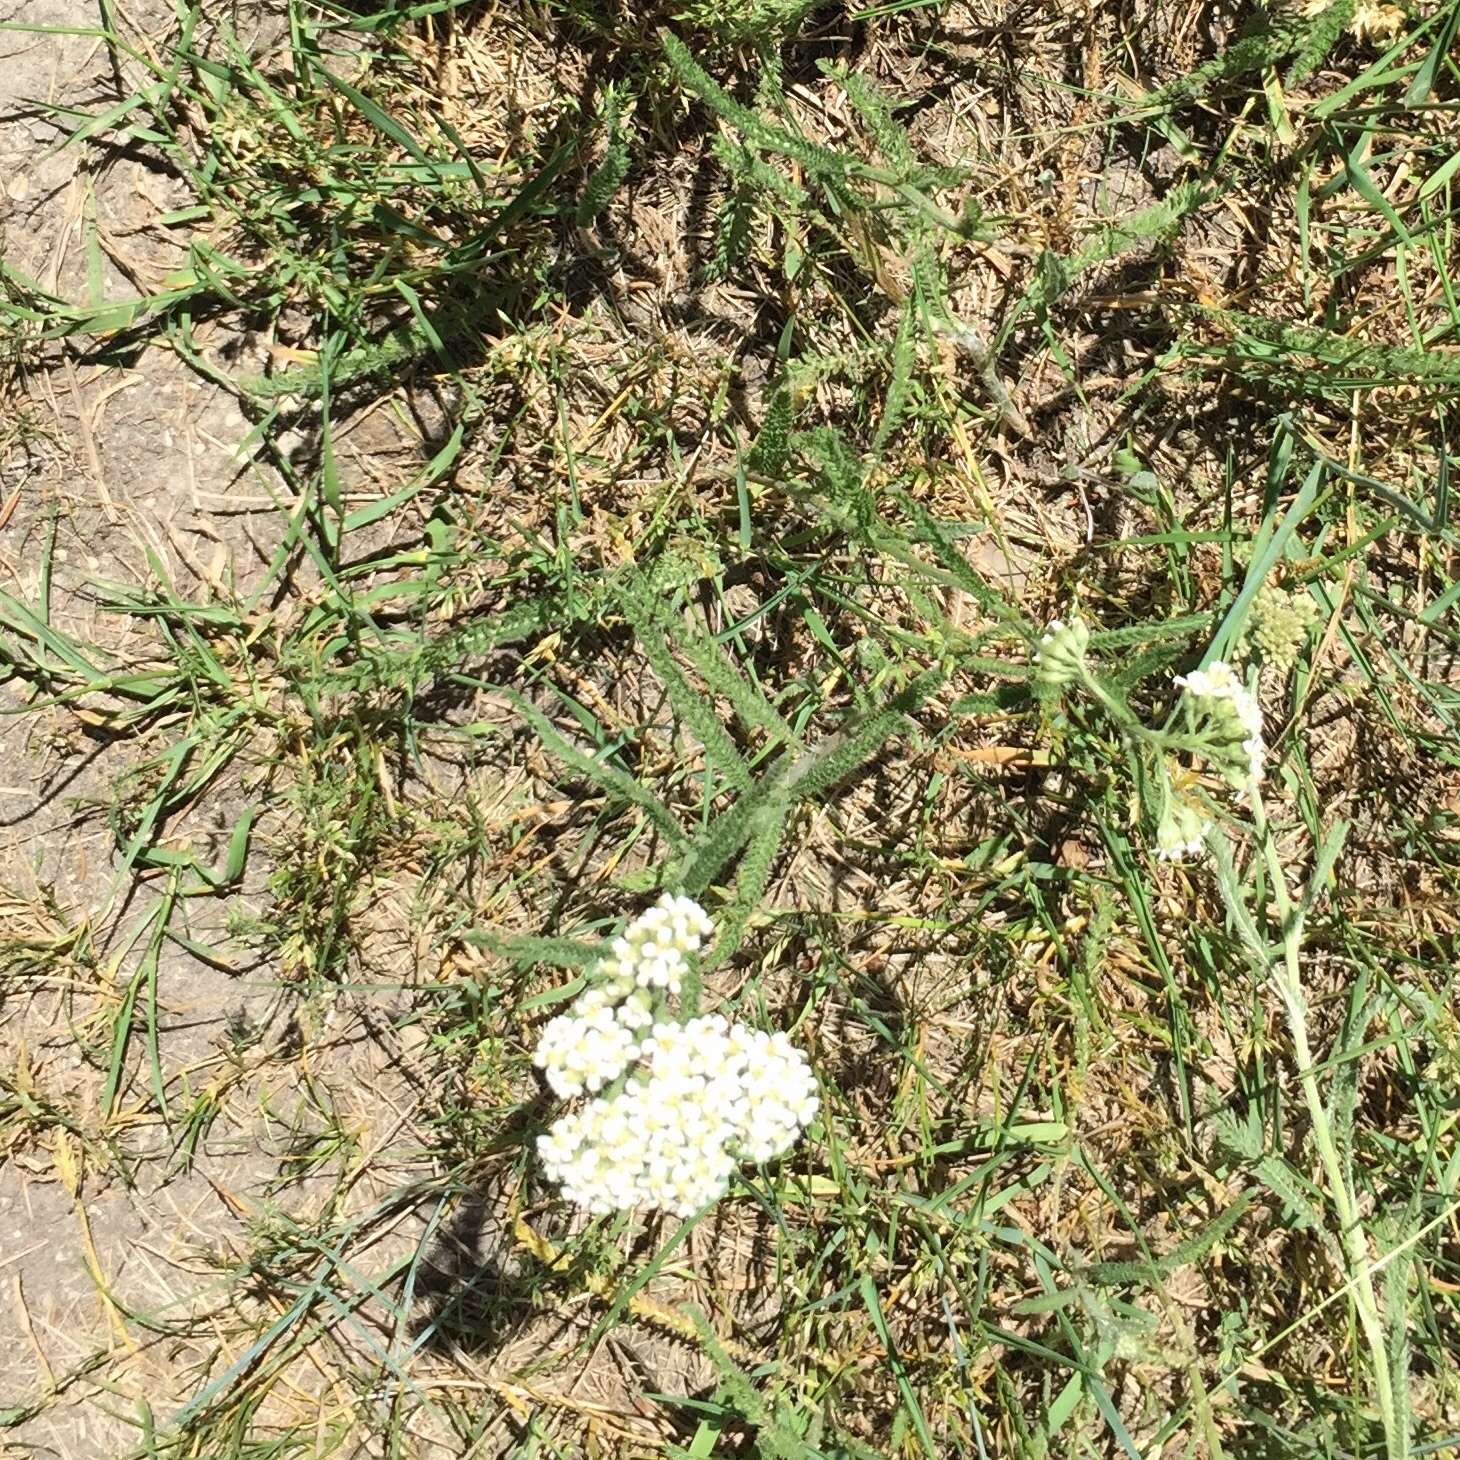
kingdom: Plantae
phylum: Tracheophyta
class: Magnoliopsida
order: Asterales
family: Asteraceae
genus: Achillea
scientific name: Achillea millefolium
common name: Yarrow
